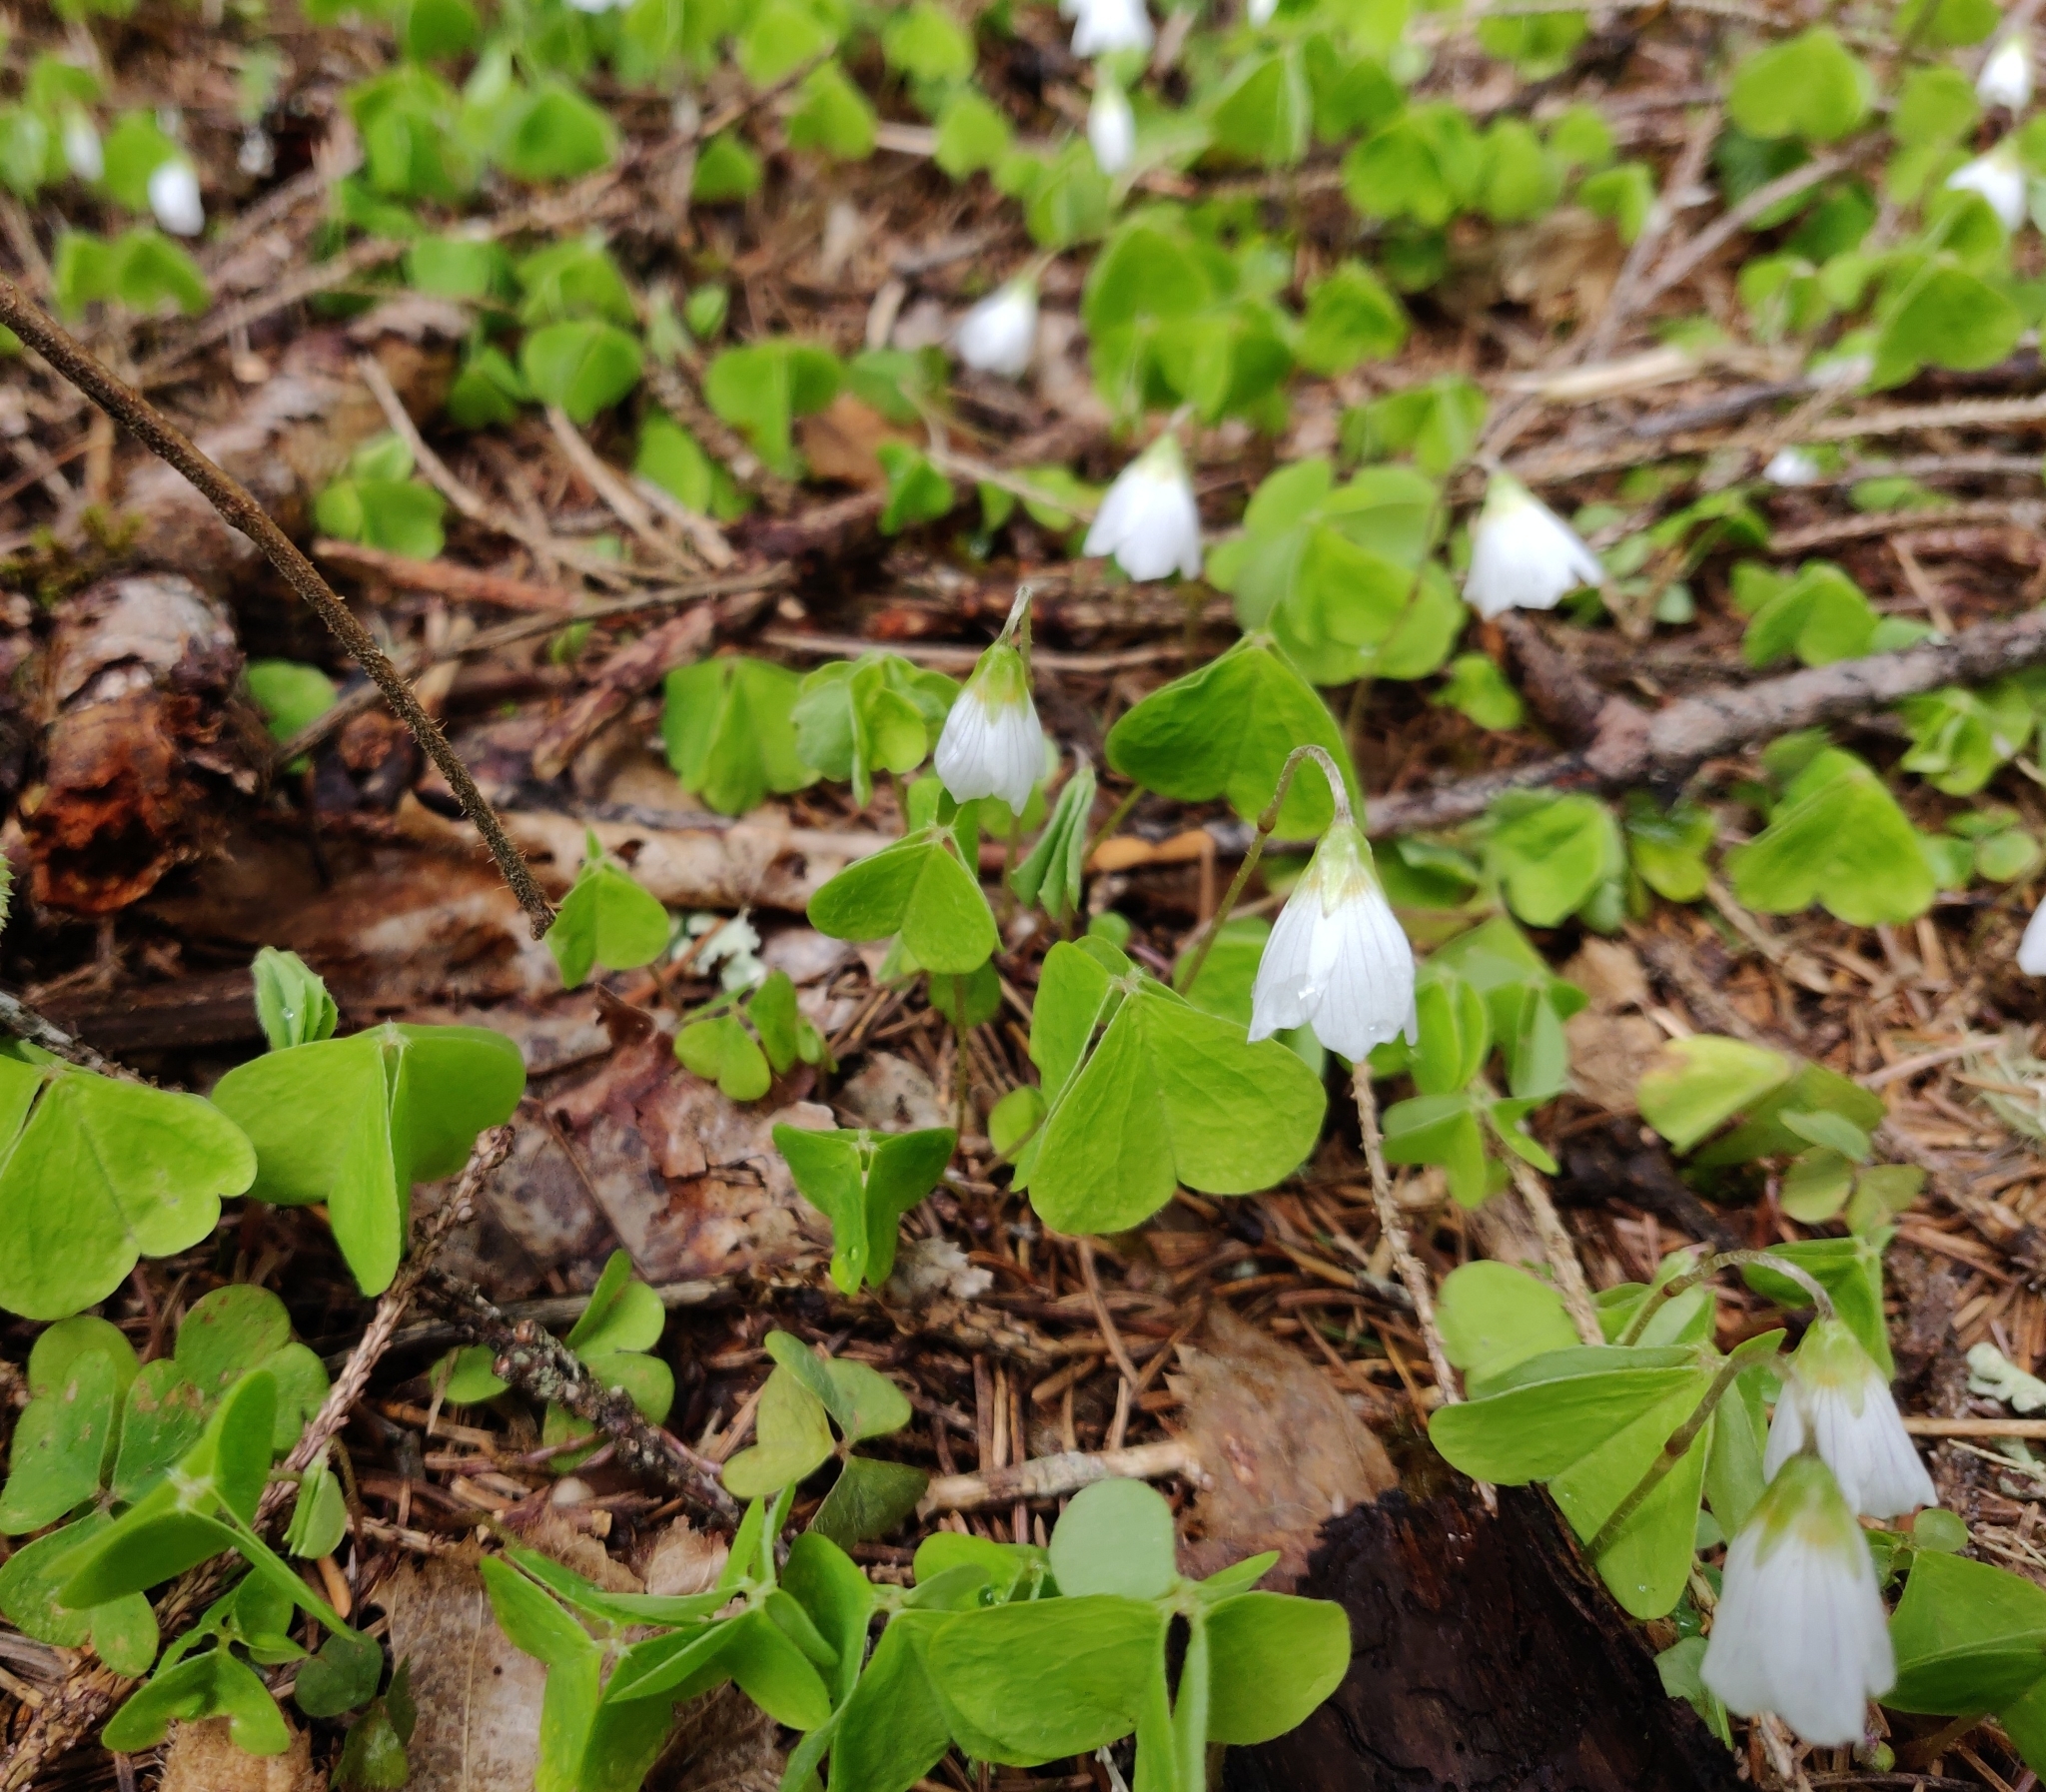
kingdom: Plantae
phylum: Tracheophyta
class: Magnoliopsida
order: Oxalidales
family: Oxalidaceae
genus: Oxalis
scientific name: Oxalis acetosella
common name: Wood-sorrel
